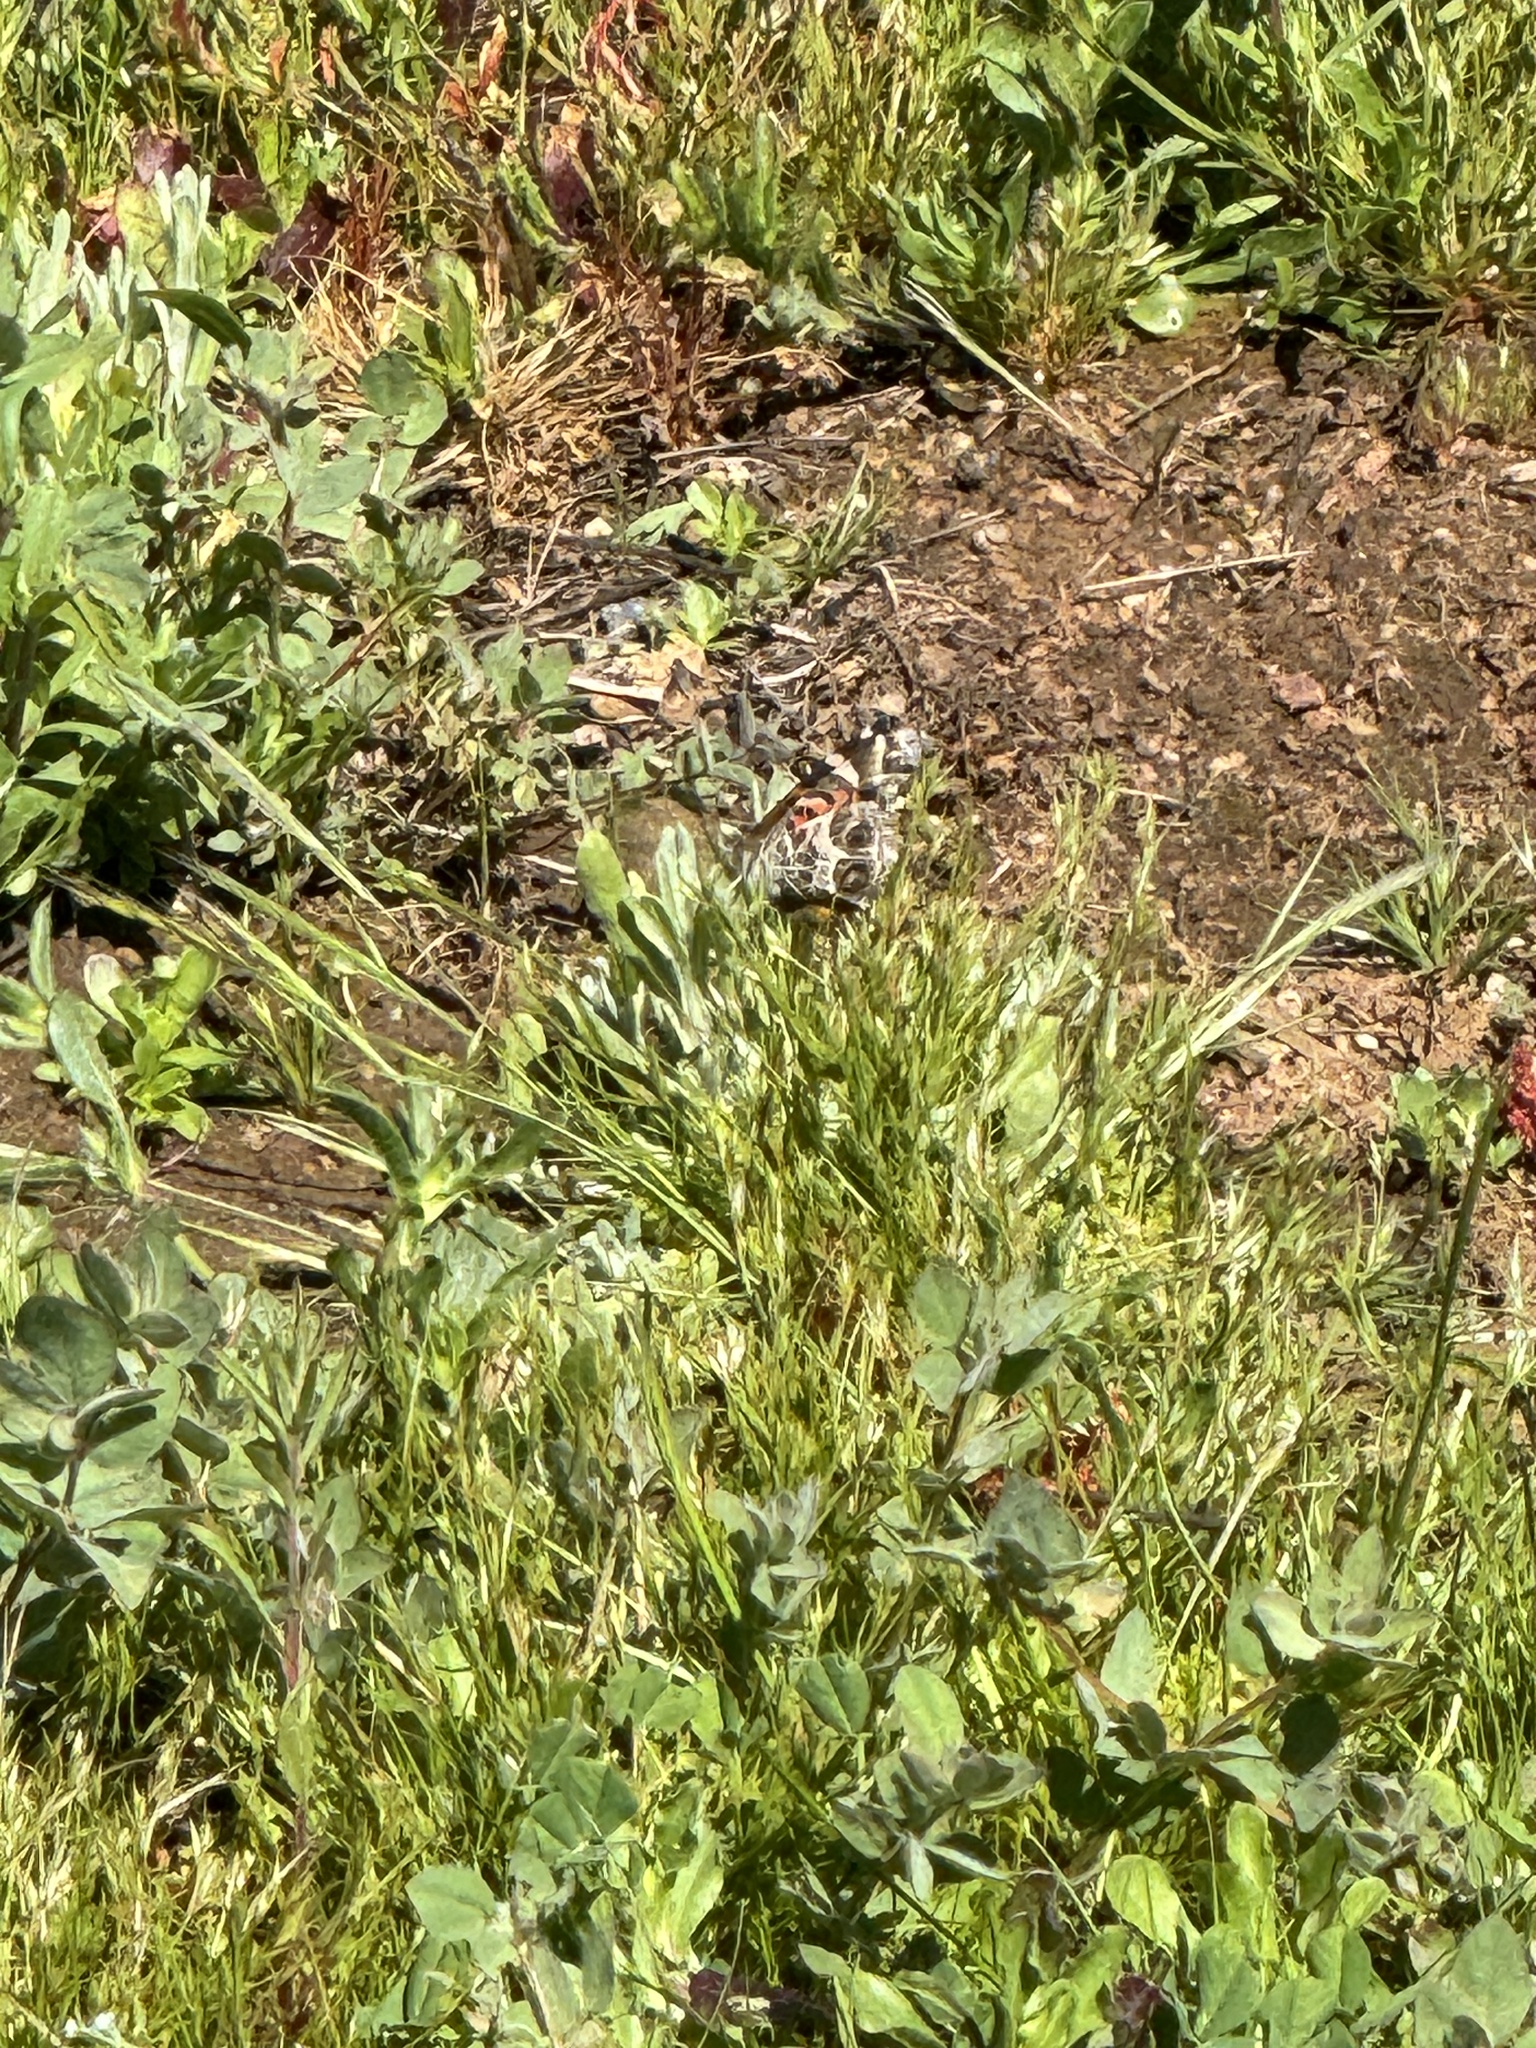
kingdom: Animalia
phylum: Arthropoda
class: Insecta
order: Lepidoptera
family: Nymphalidae
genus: Vanessa
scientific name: Vanessa virginiensis
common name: American lady
